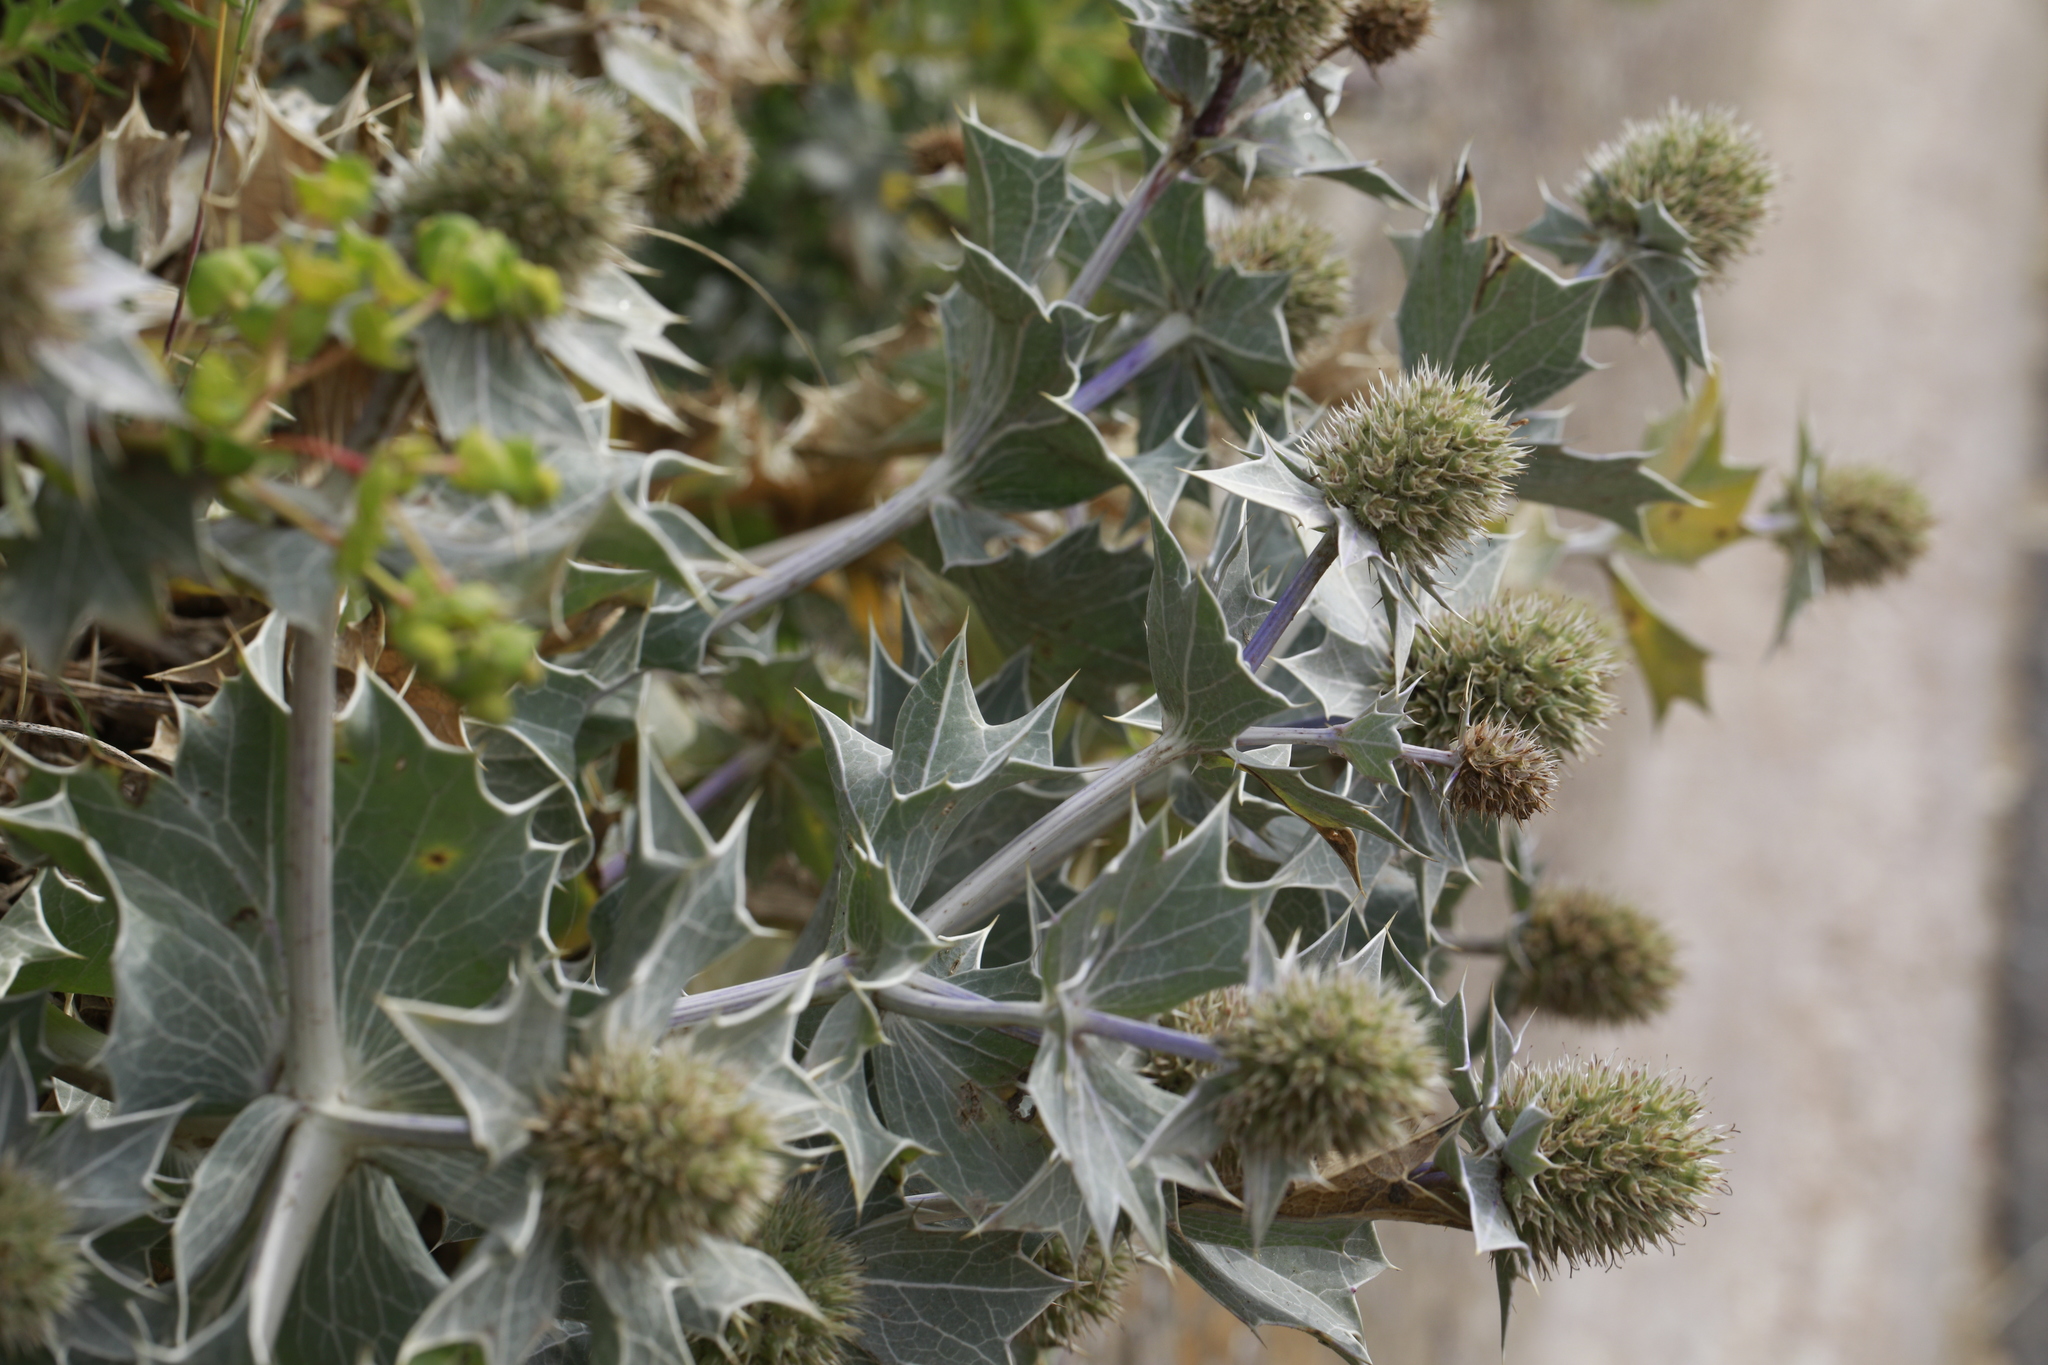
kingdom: Plantae
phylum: Tracheophyta
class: Magnoliopsida
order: Apiales
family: Apiaceae
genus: Eryngium
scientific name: Eryngium maritimum
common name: Sea-holly
